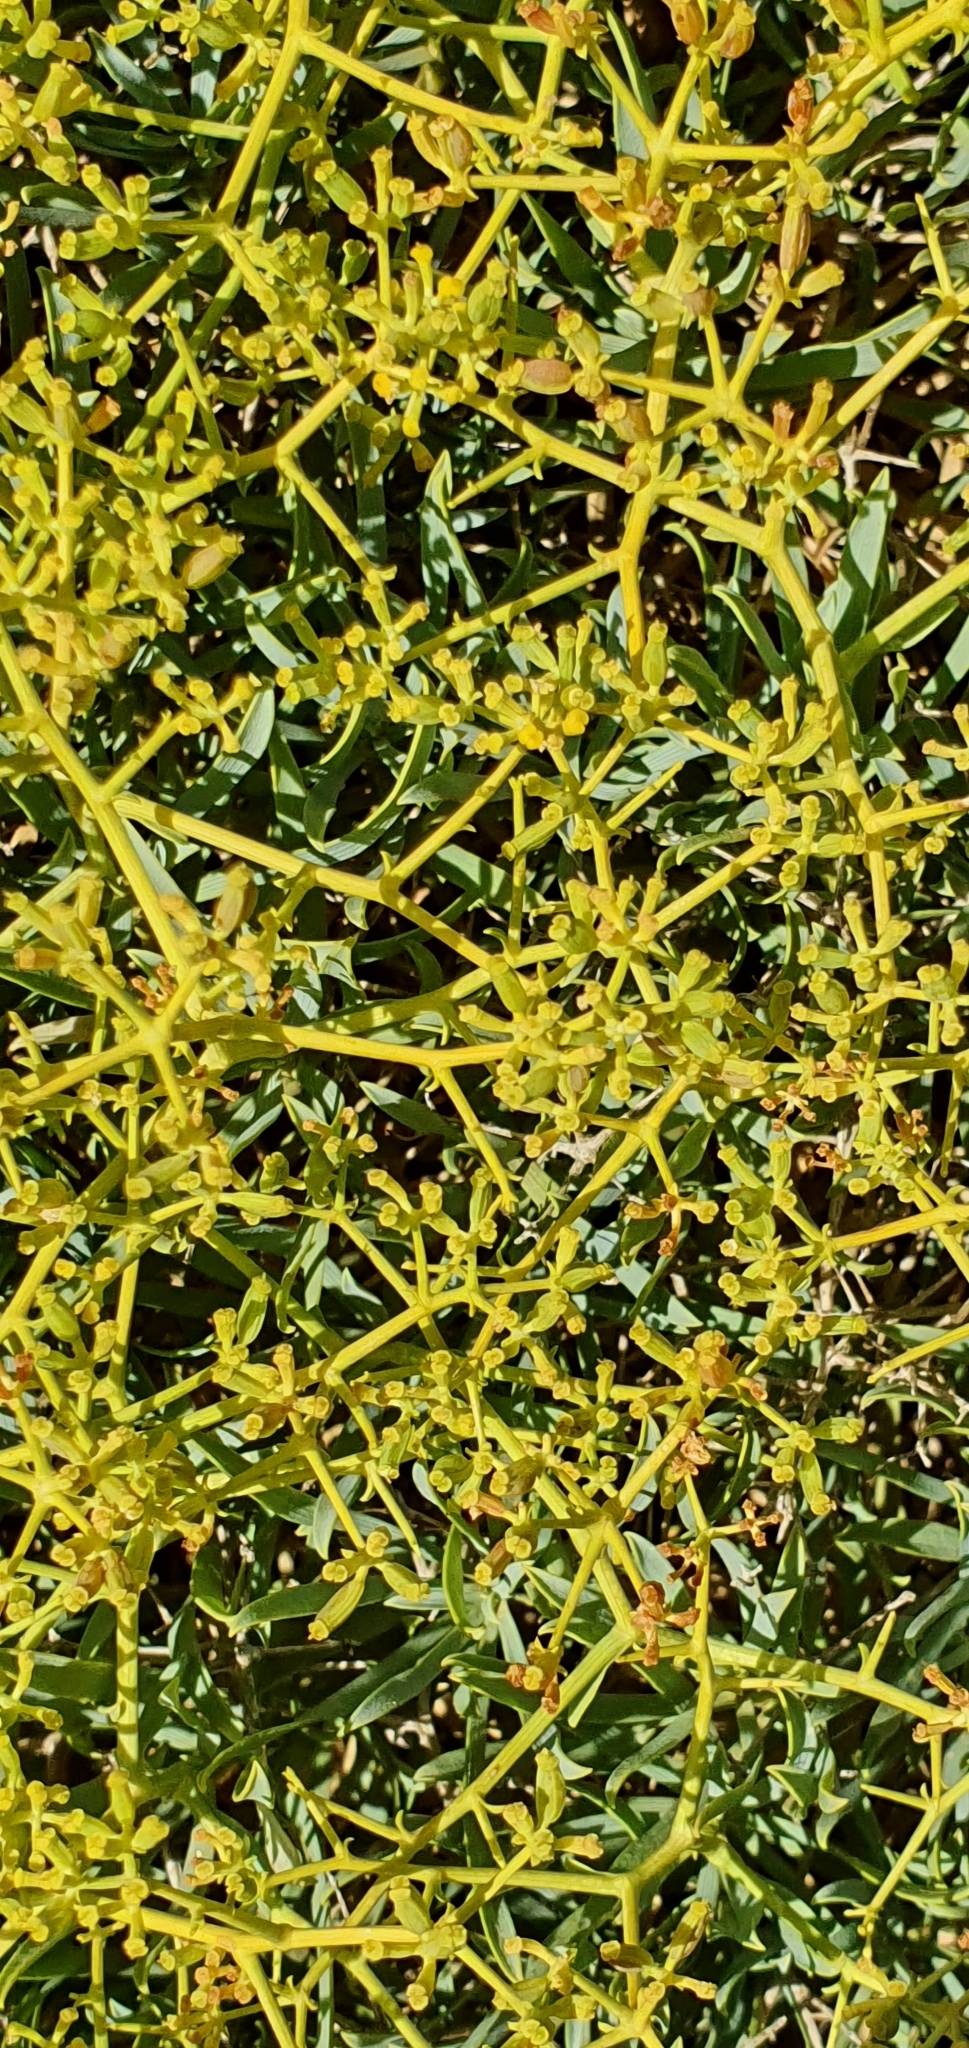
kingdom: Plantae
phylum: Tracheophyta
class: Magnoliopsida
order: Apiales
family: Apiaceae
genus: Bupleurum
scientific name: Bupleurum fruticescens
